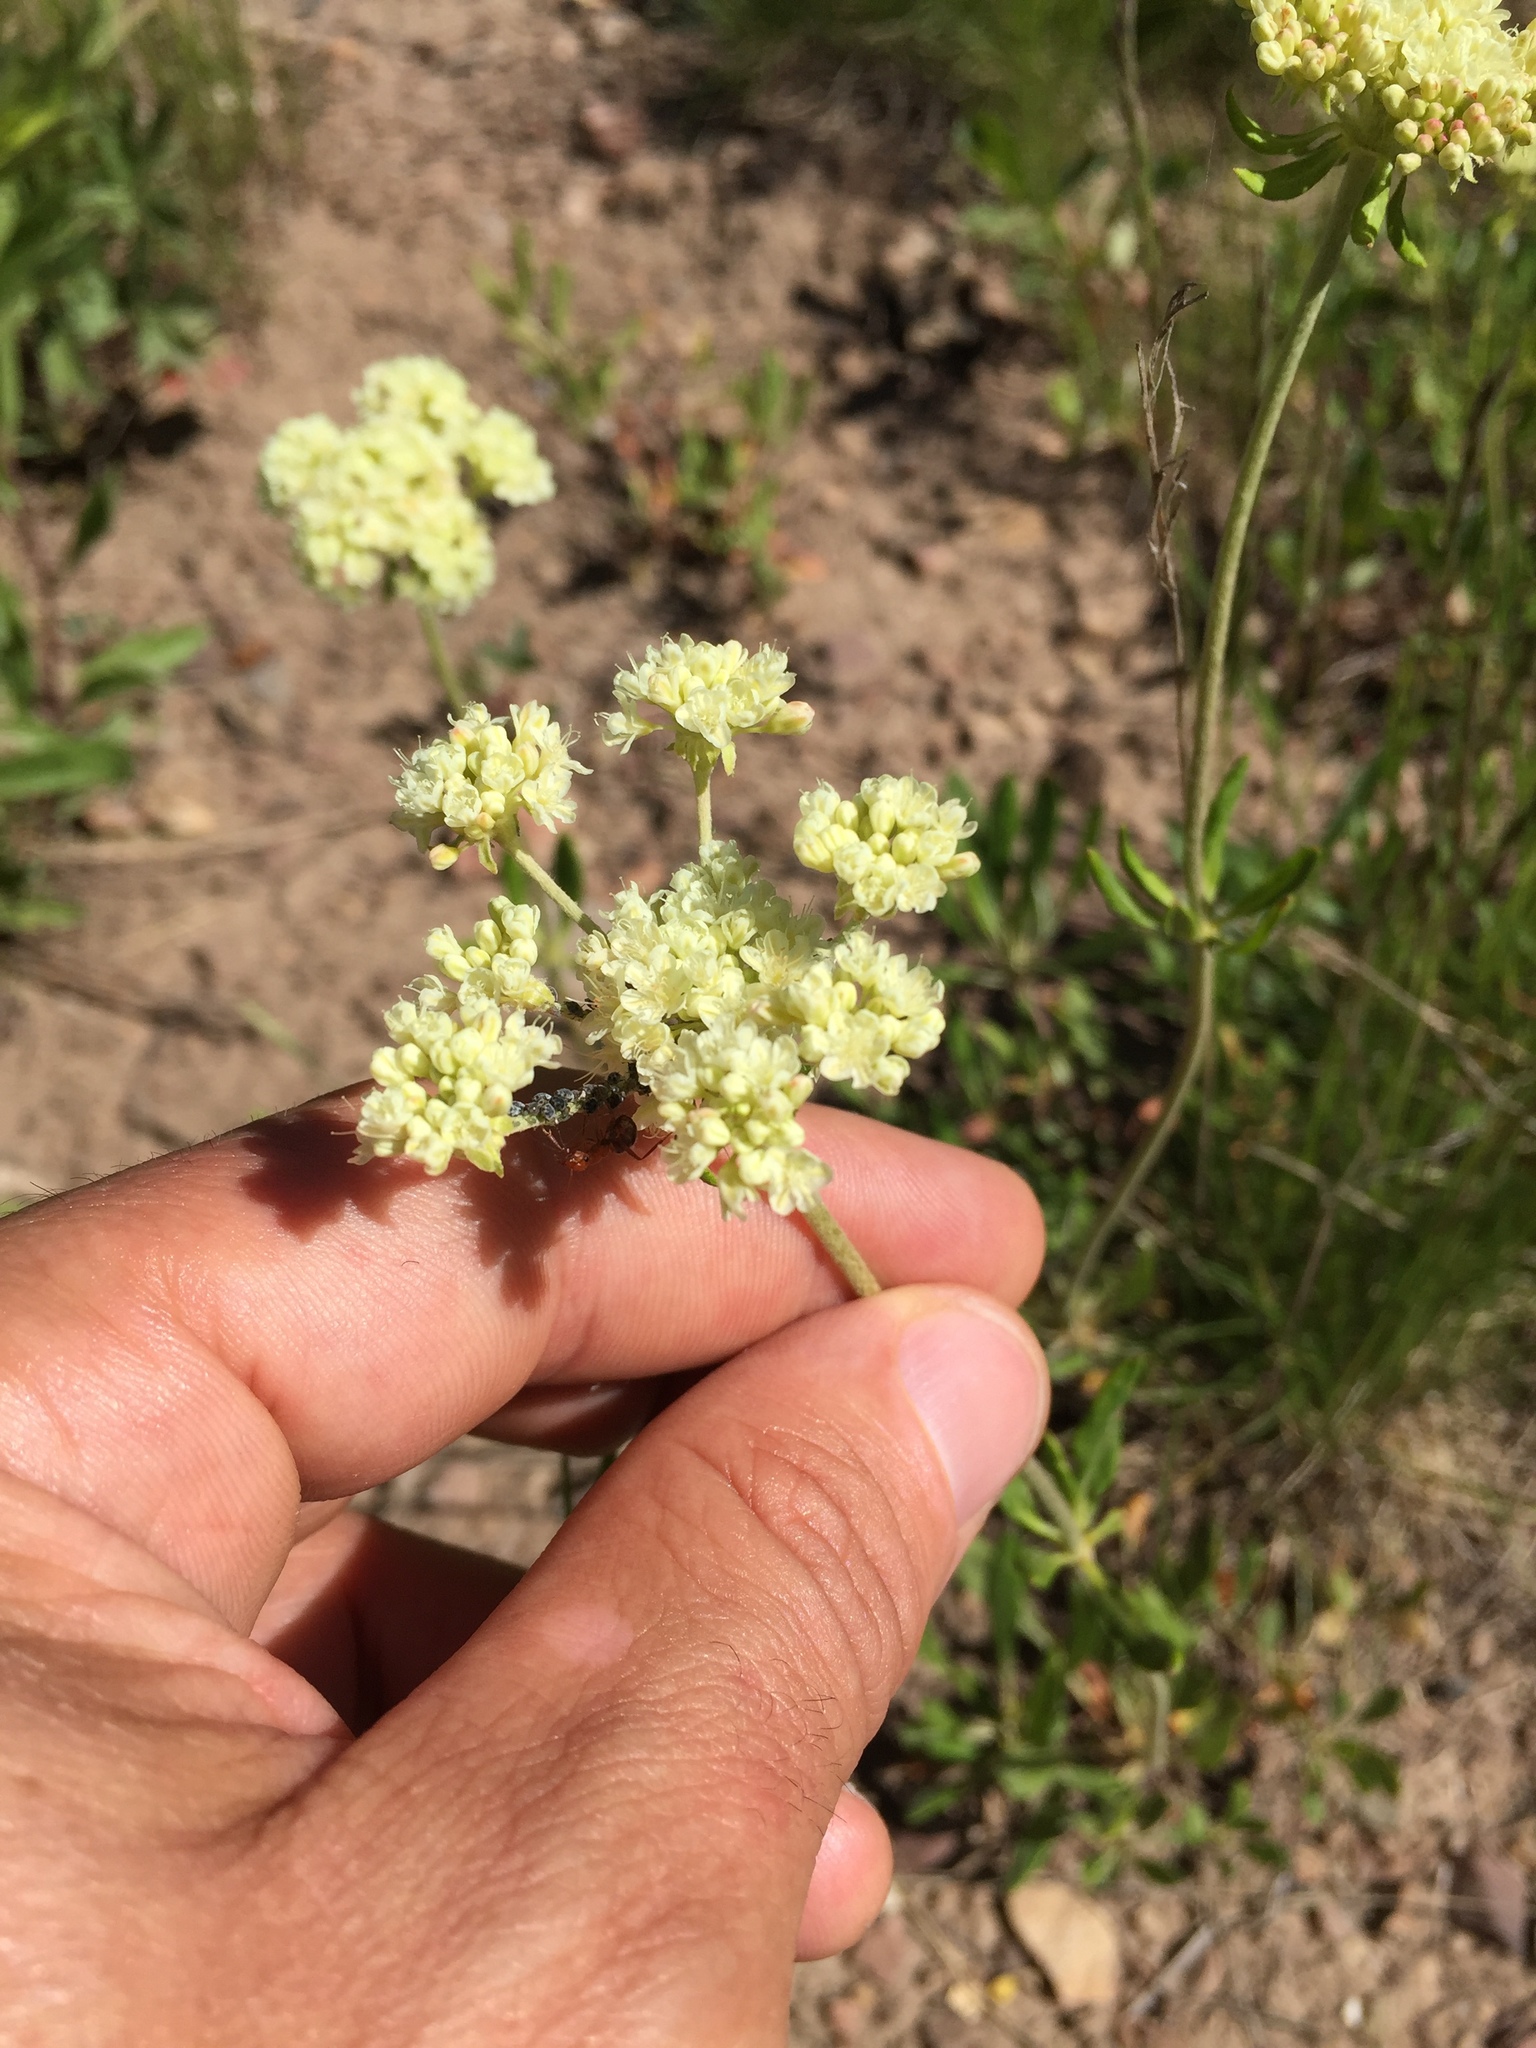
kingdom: Plantae
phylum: Tracheophyta
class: Magnoliopsida
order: Caryophyllales
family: Polygonaceae
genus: Eriogonum
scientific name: Eriogonum heracleoides
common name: Wyeth's buckwheat
